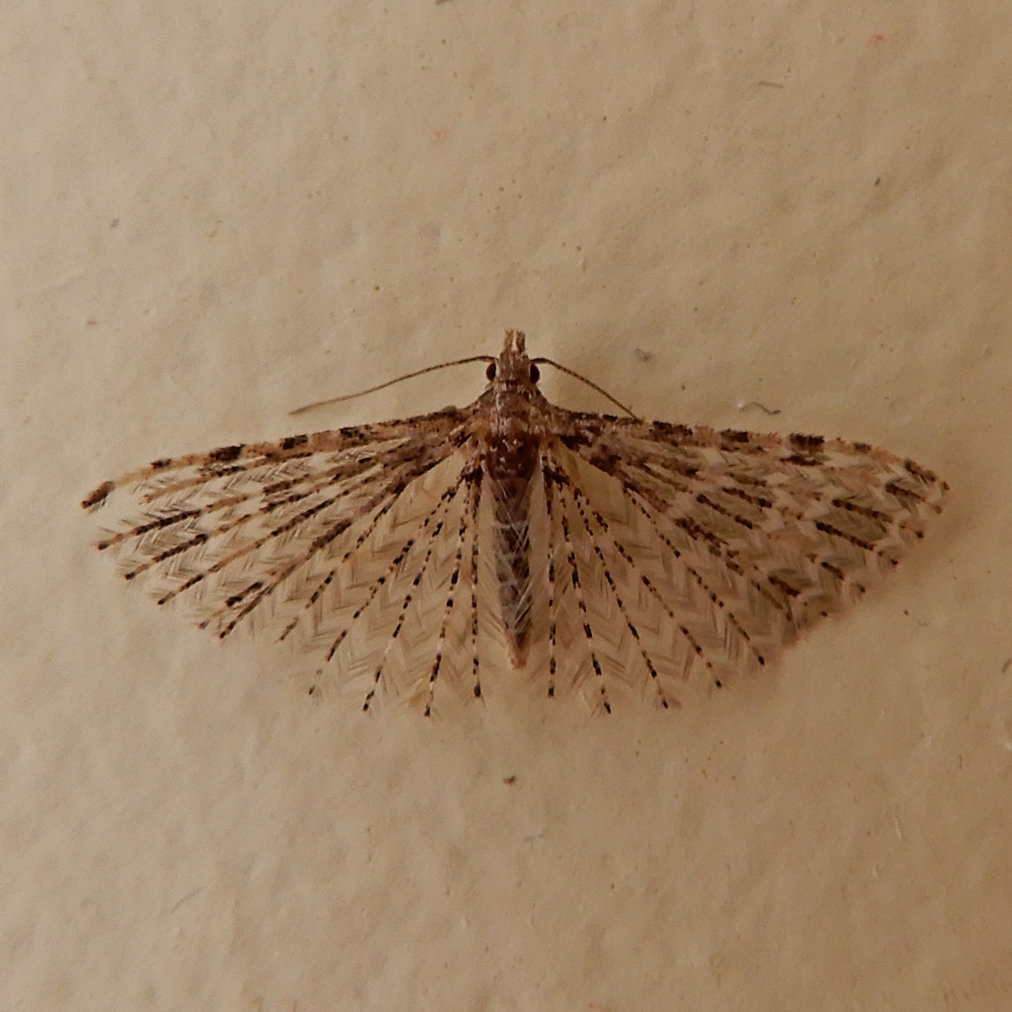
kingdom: Animalia
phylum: Arthropoda
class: Insecta
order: Lepidoptera
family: Alucitidae
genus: Alucita
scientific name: Alucita montana
